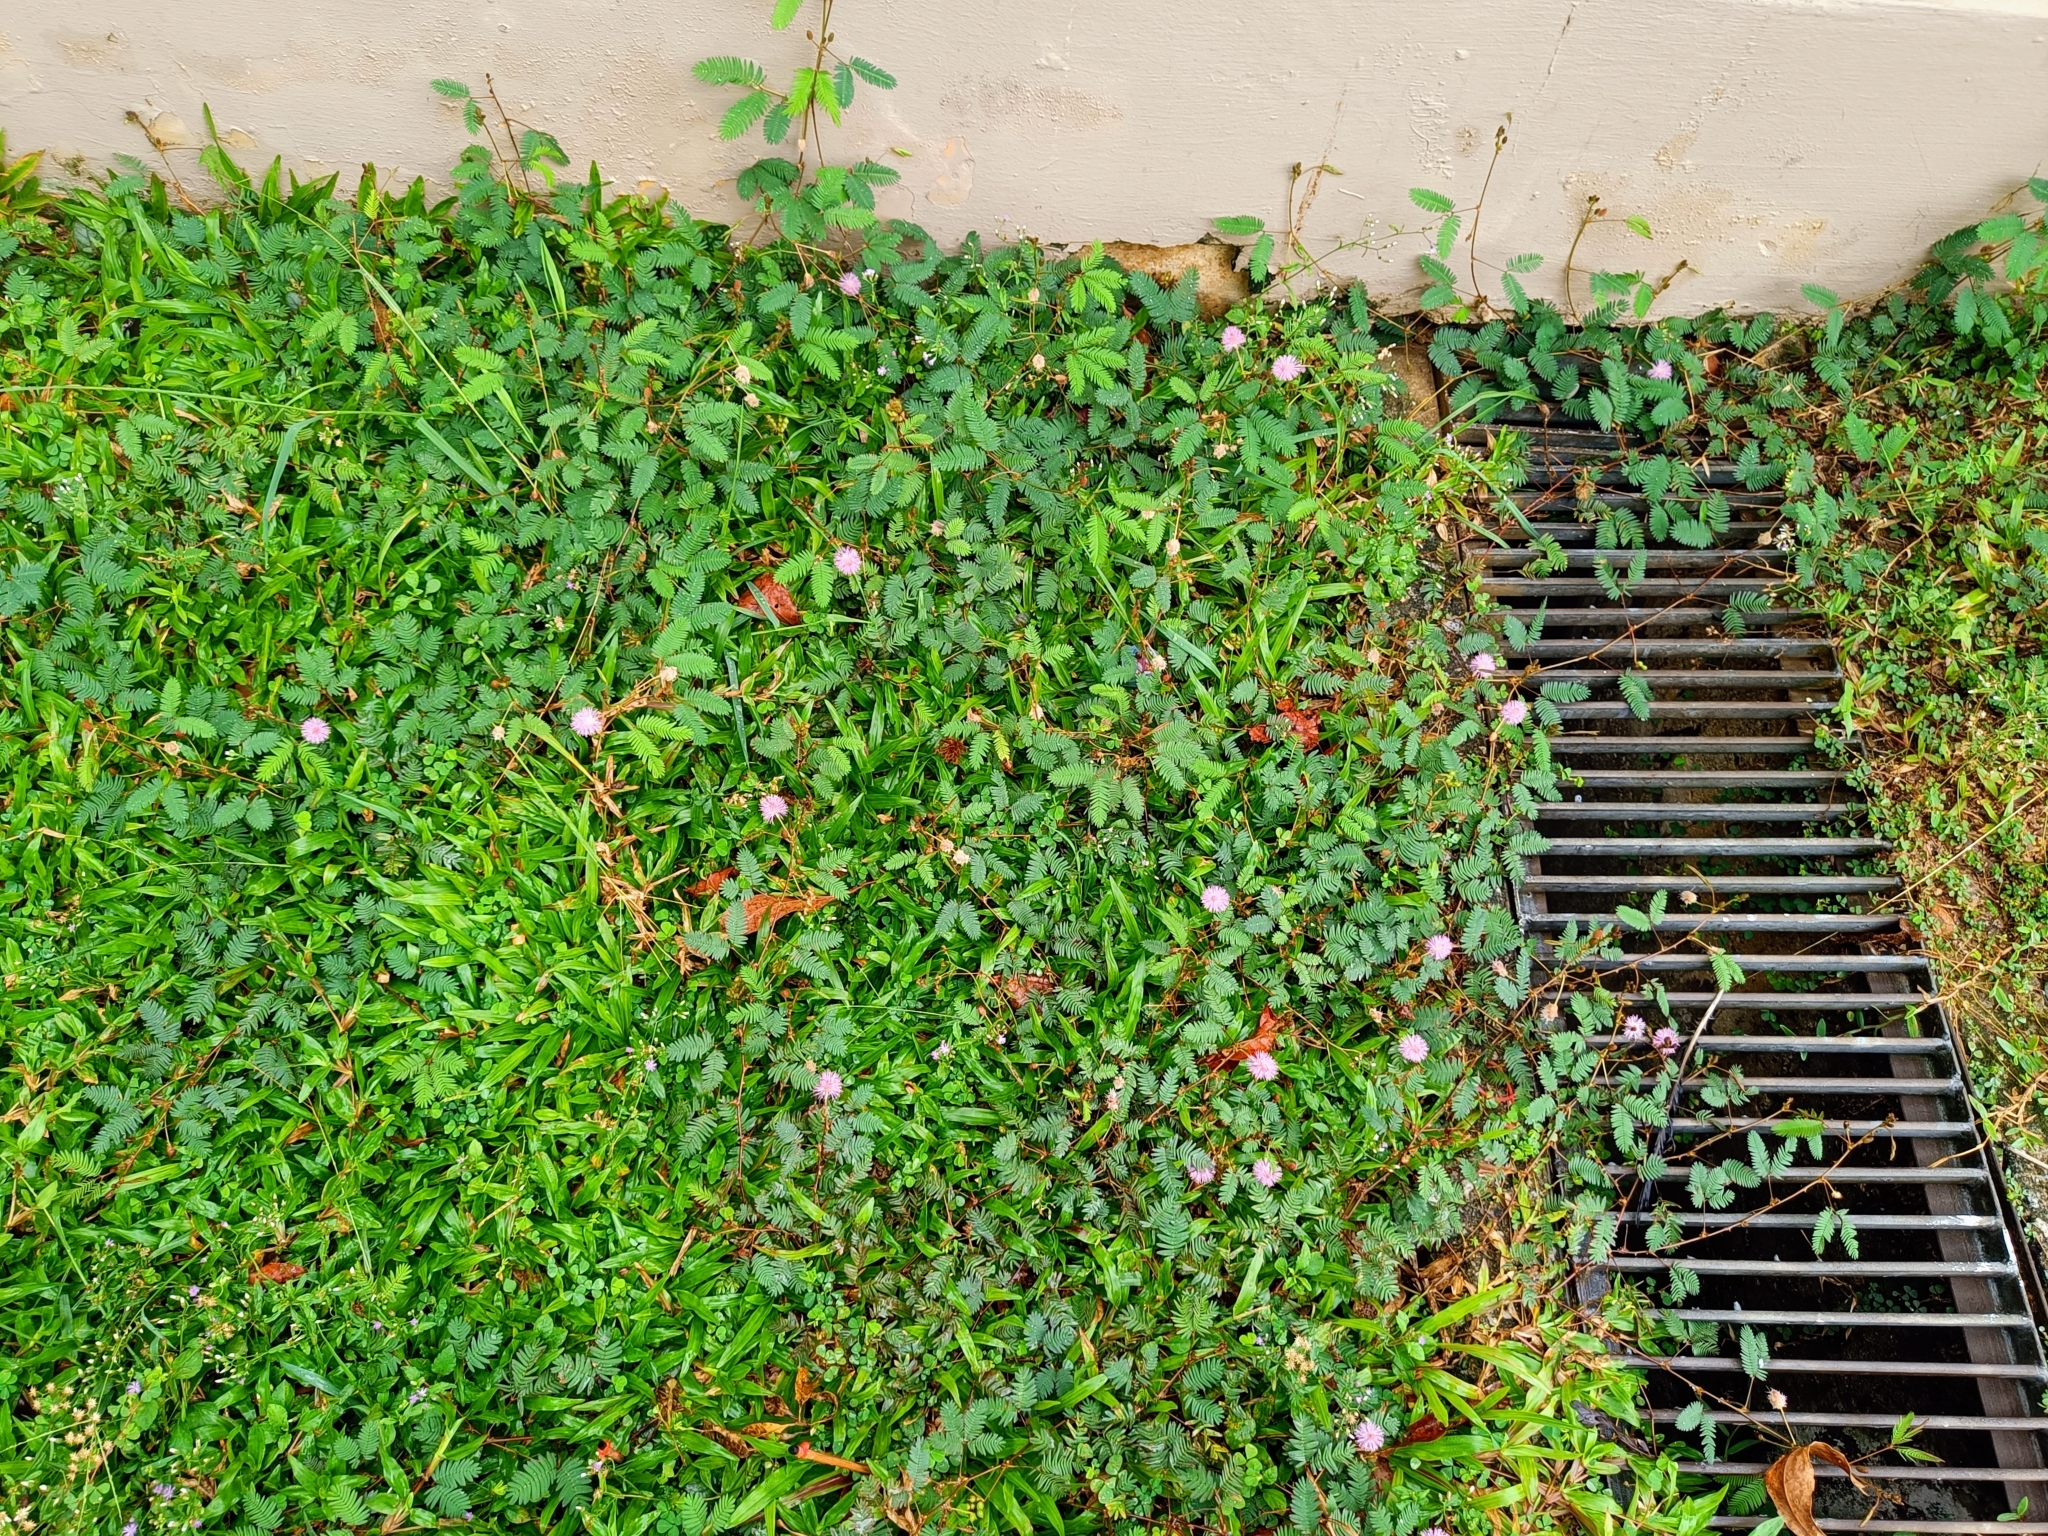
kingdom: Plantae
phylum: Tracheophyta
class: Magnoliopsida
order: Fabales
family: Fabaceae
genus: Mimosa
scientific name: Mimosa pudica
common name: Sensitive plant
